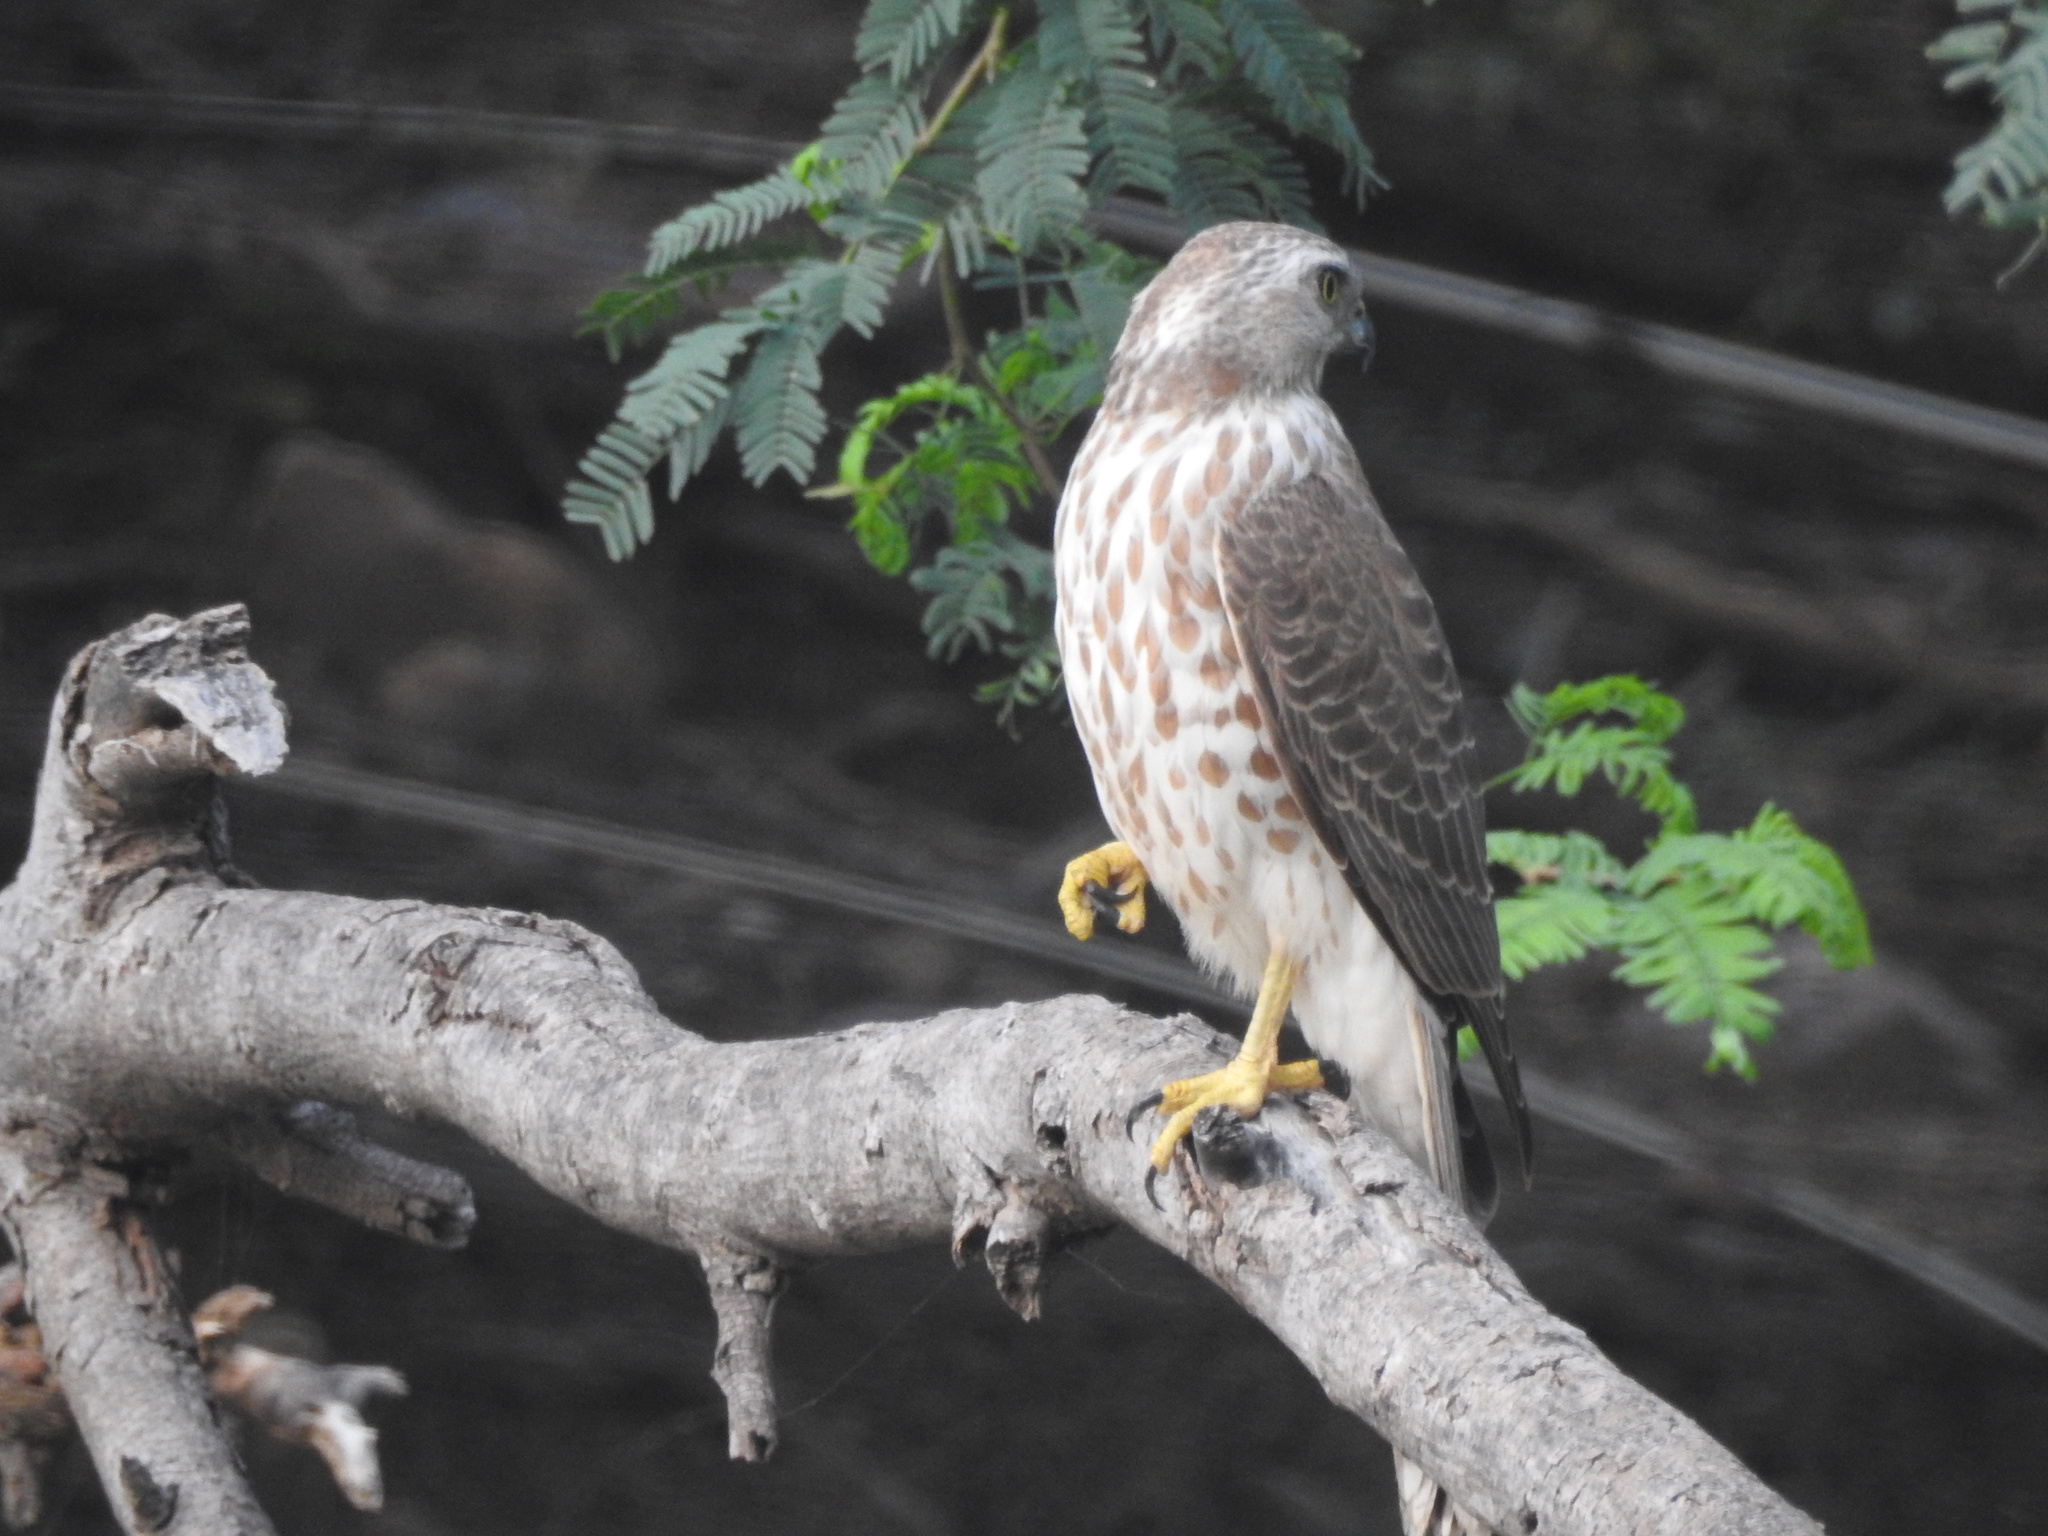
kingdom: Animalia
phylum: Chordata
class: Aves
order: Accipitriformes
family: Accipitridae
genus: Accipiter
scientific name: Accipiter badius
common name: Shikra
